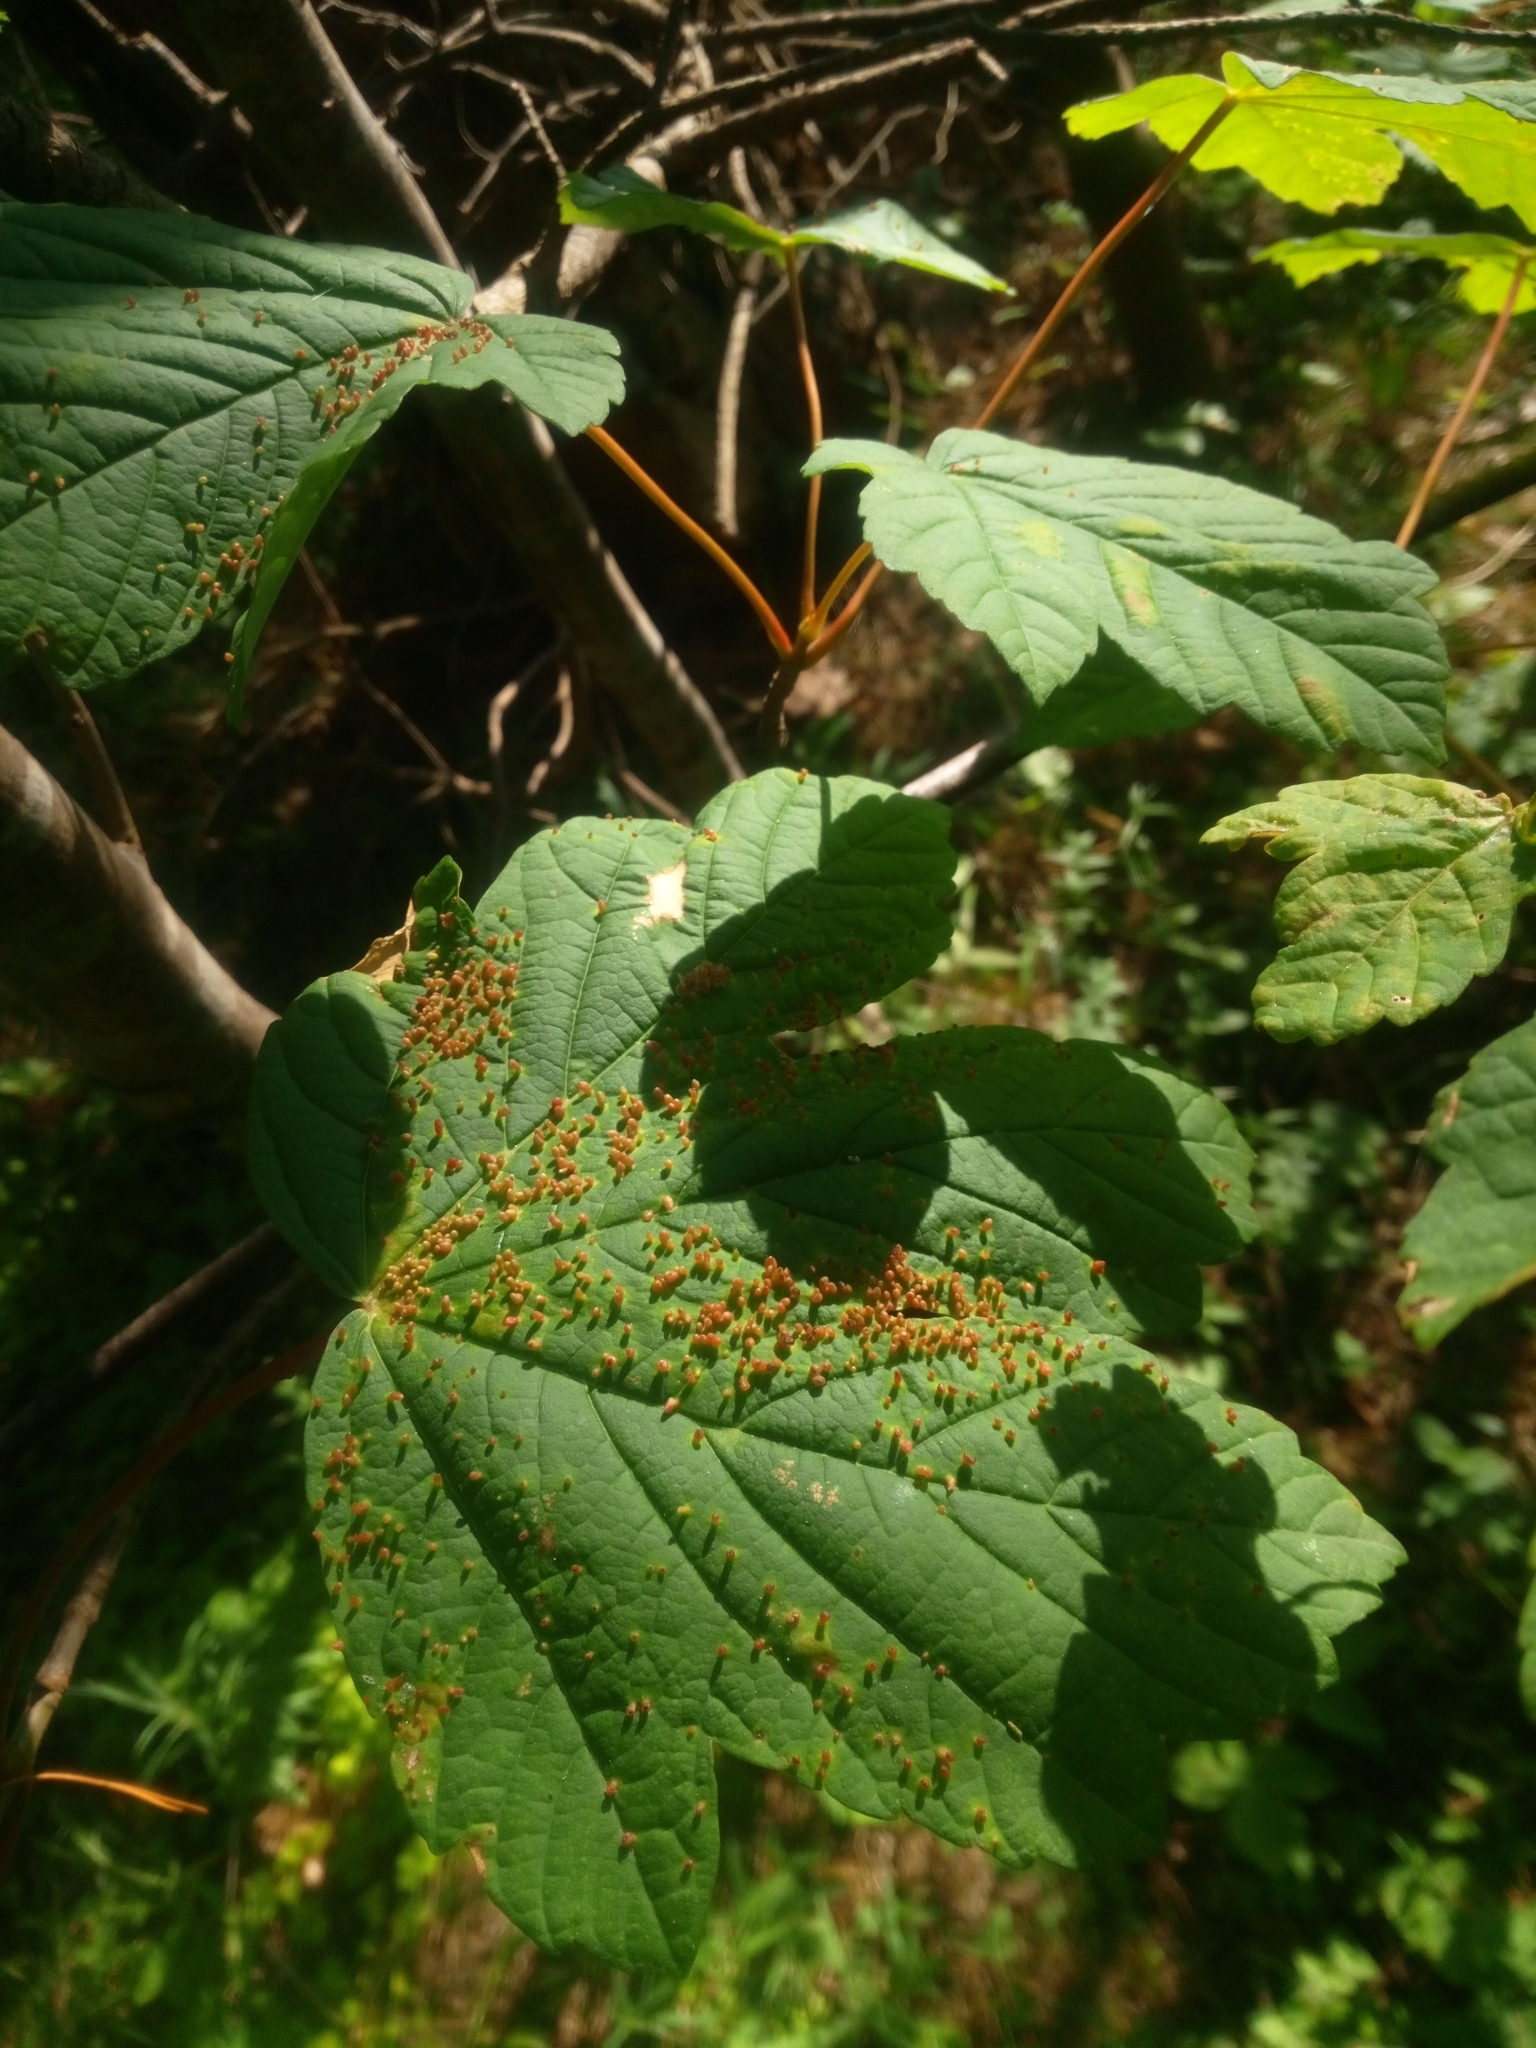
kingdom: Plantae
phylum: Tracheophyta
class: Magnoliopsida
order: Sapindales
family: Sapindaceae
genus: Acer
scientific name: Acer pseudoplatanus
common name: Sycamore
